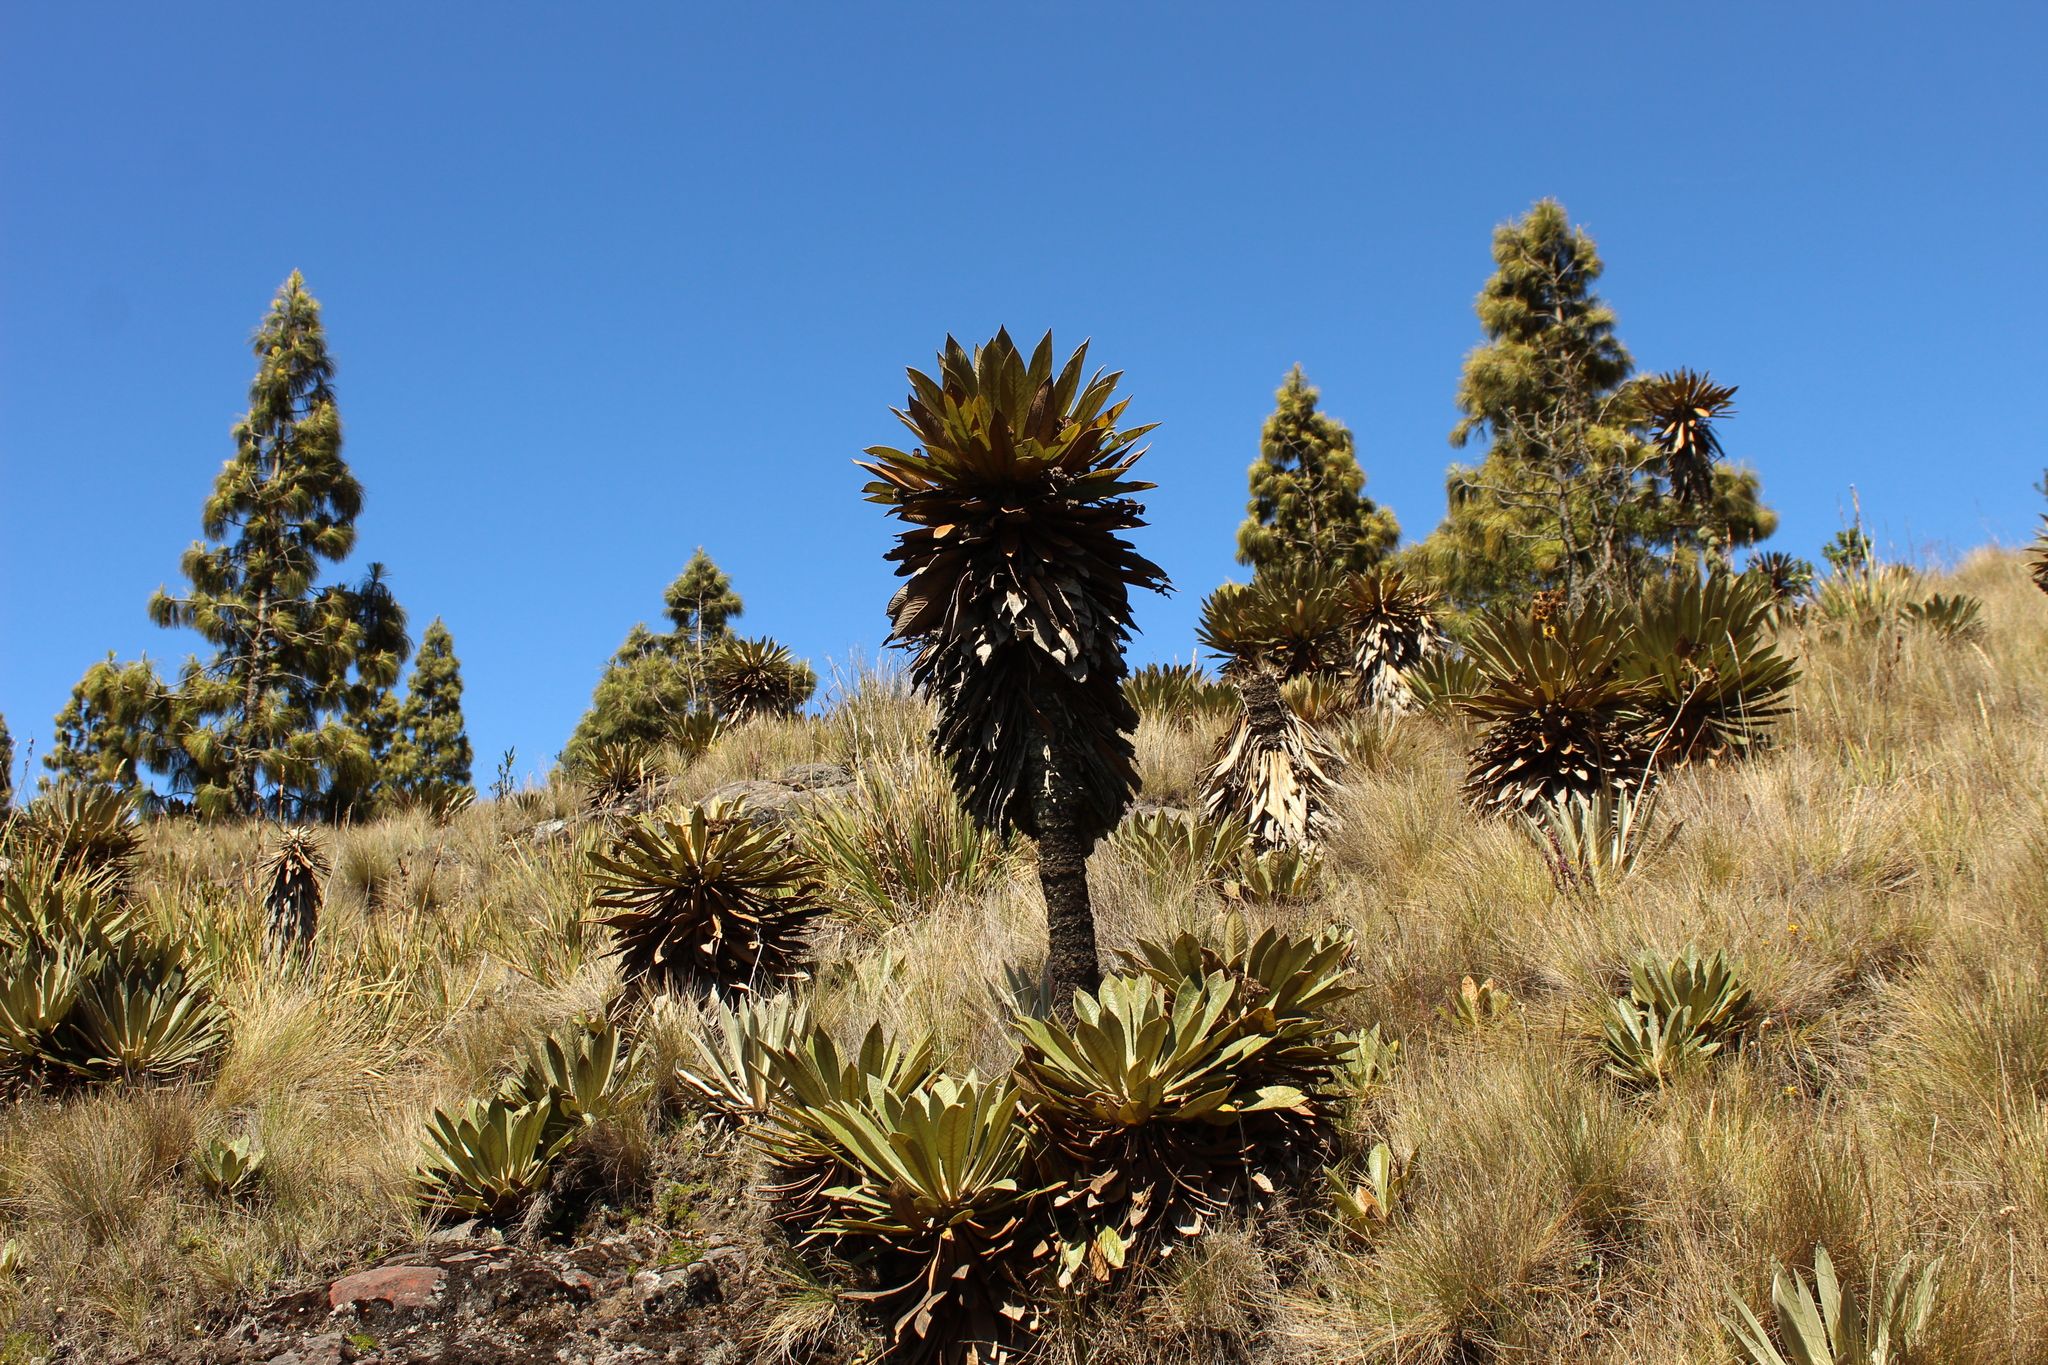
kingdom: Plantae
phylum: Tracheophyta
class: Magnoliopsida
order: Asterales
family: Asteraceae
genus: Espeletia
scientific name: Espeletia guacharaca
